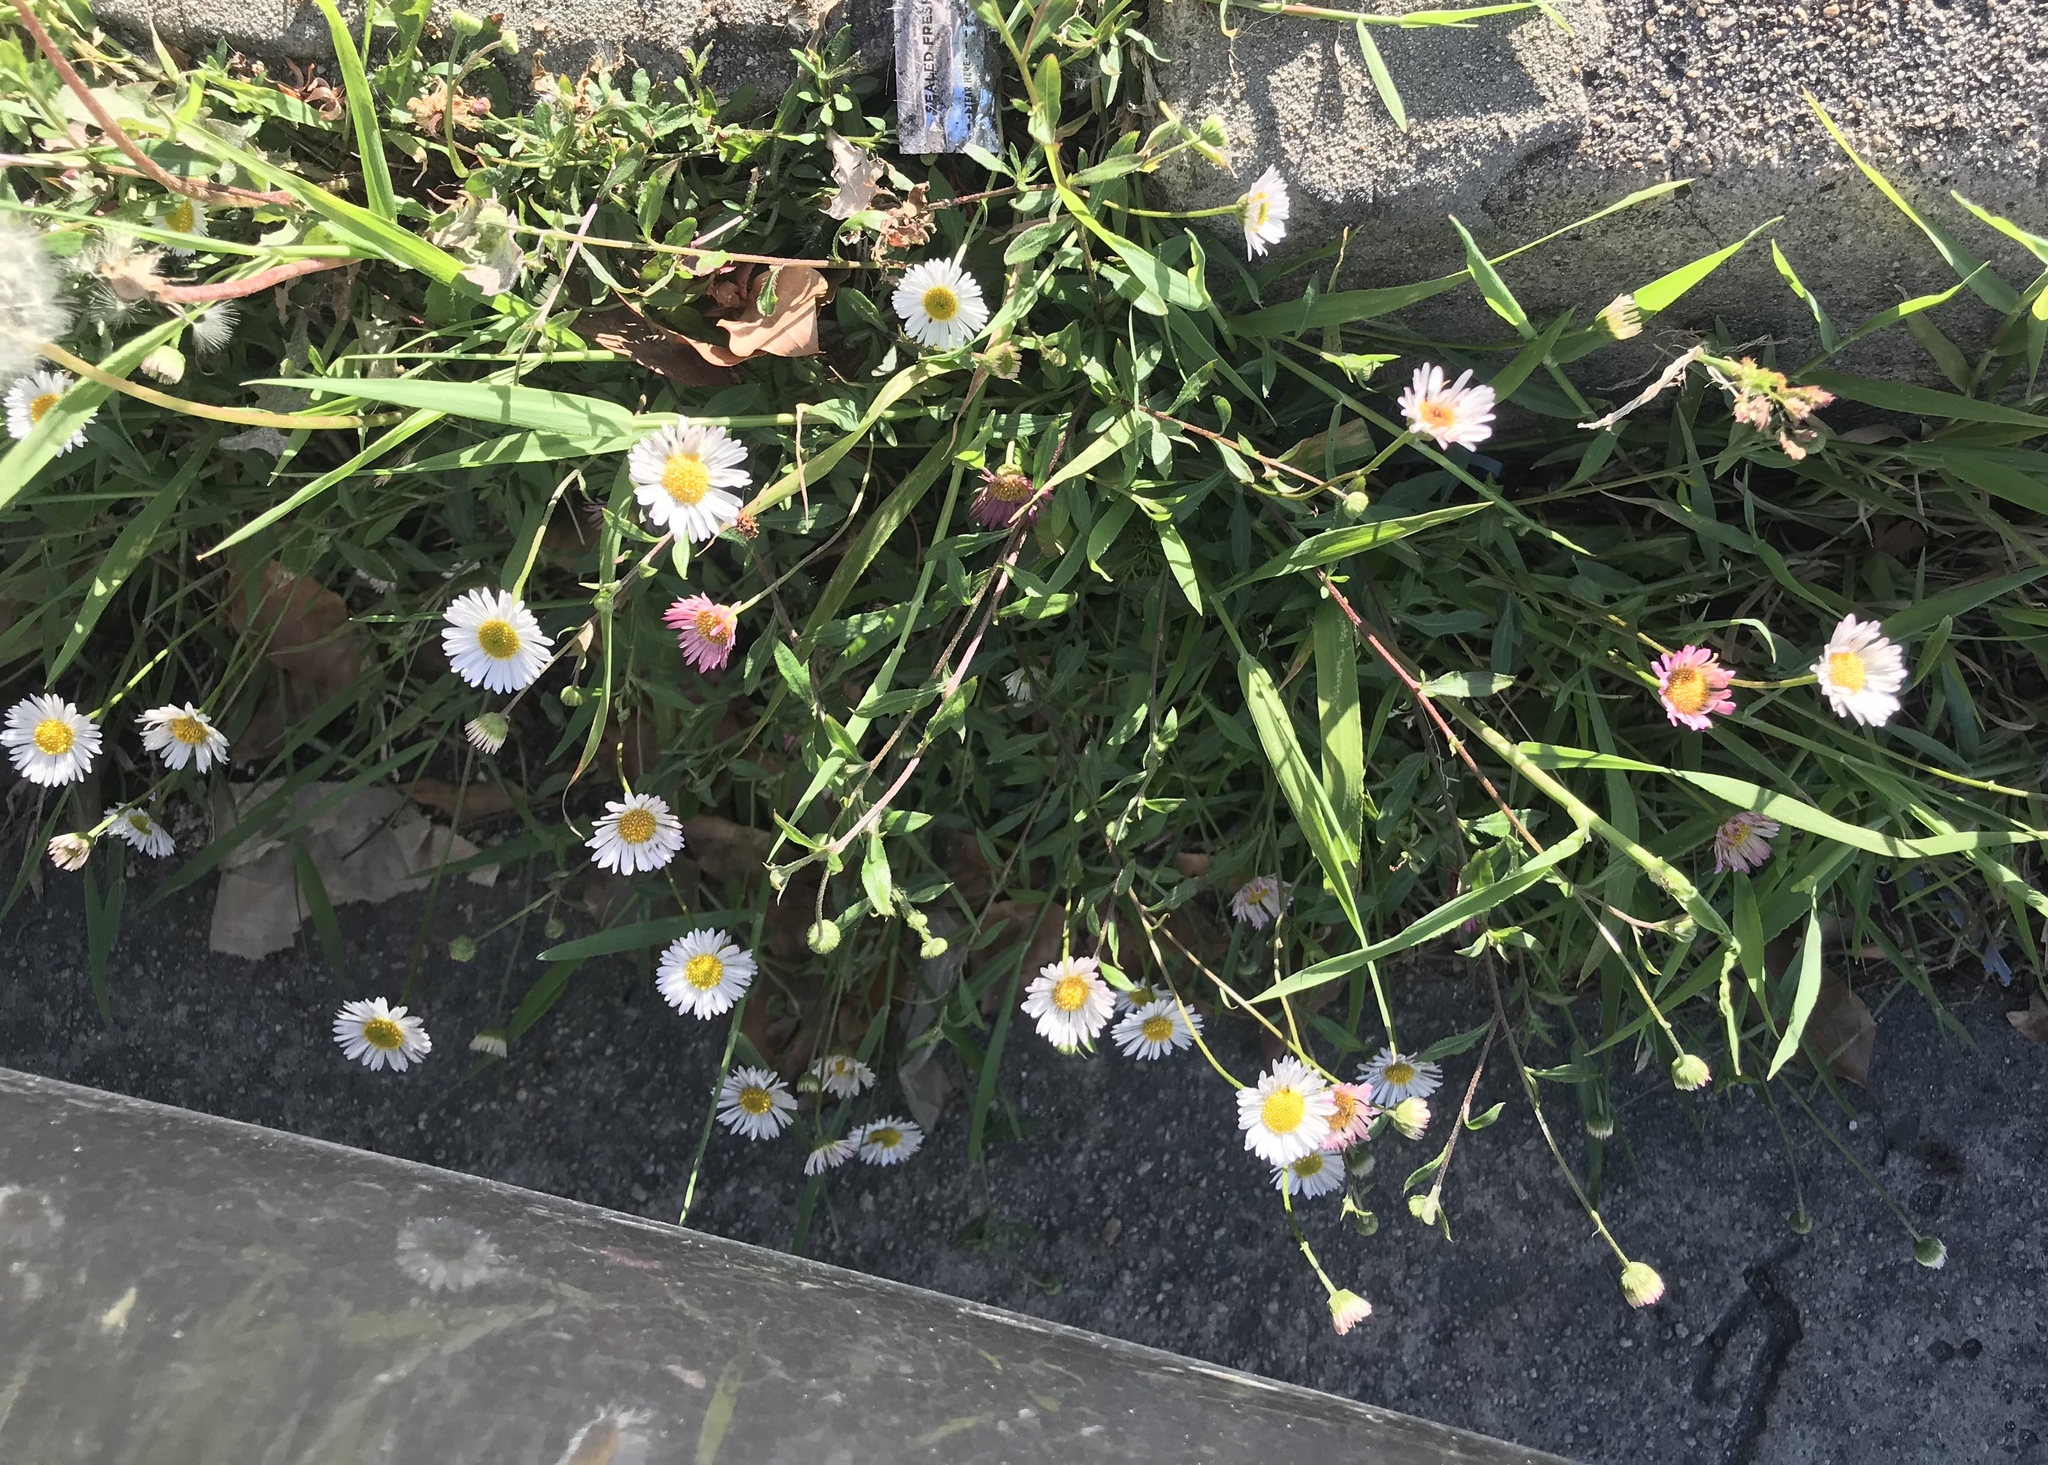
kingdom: Plantae
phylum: Tracheophyta
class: Magnoliopsida
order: Asterales
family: Asteraceae
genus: Erigeron
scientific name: Erigeron karvinskianus
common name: Mexican fleabane
